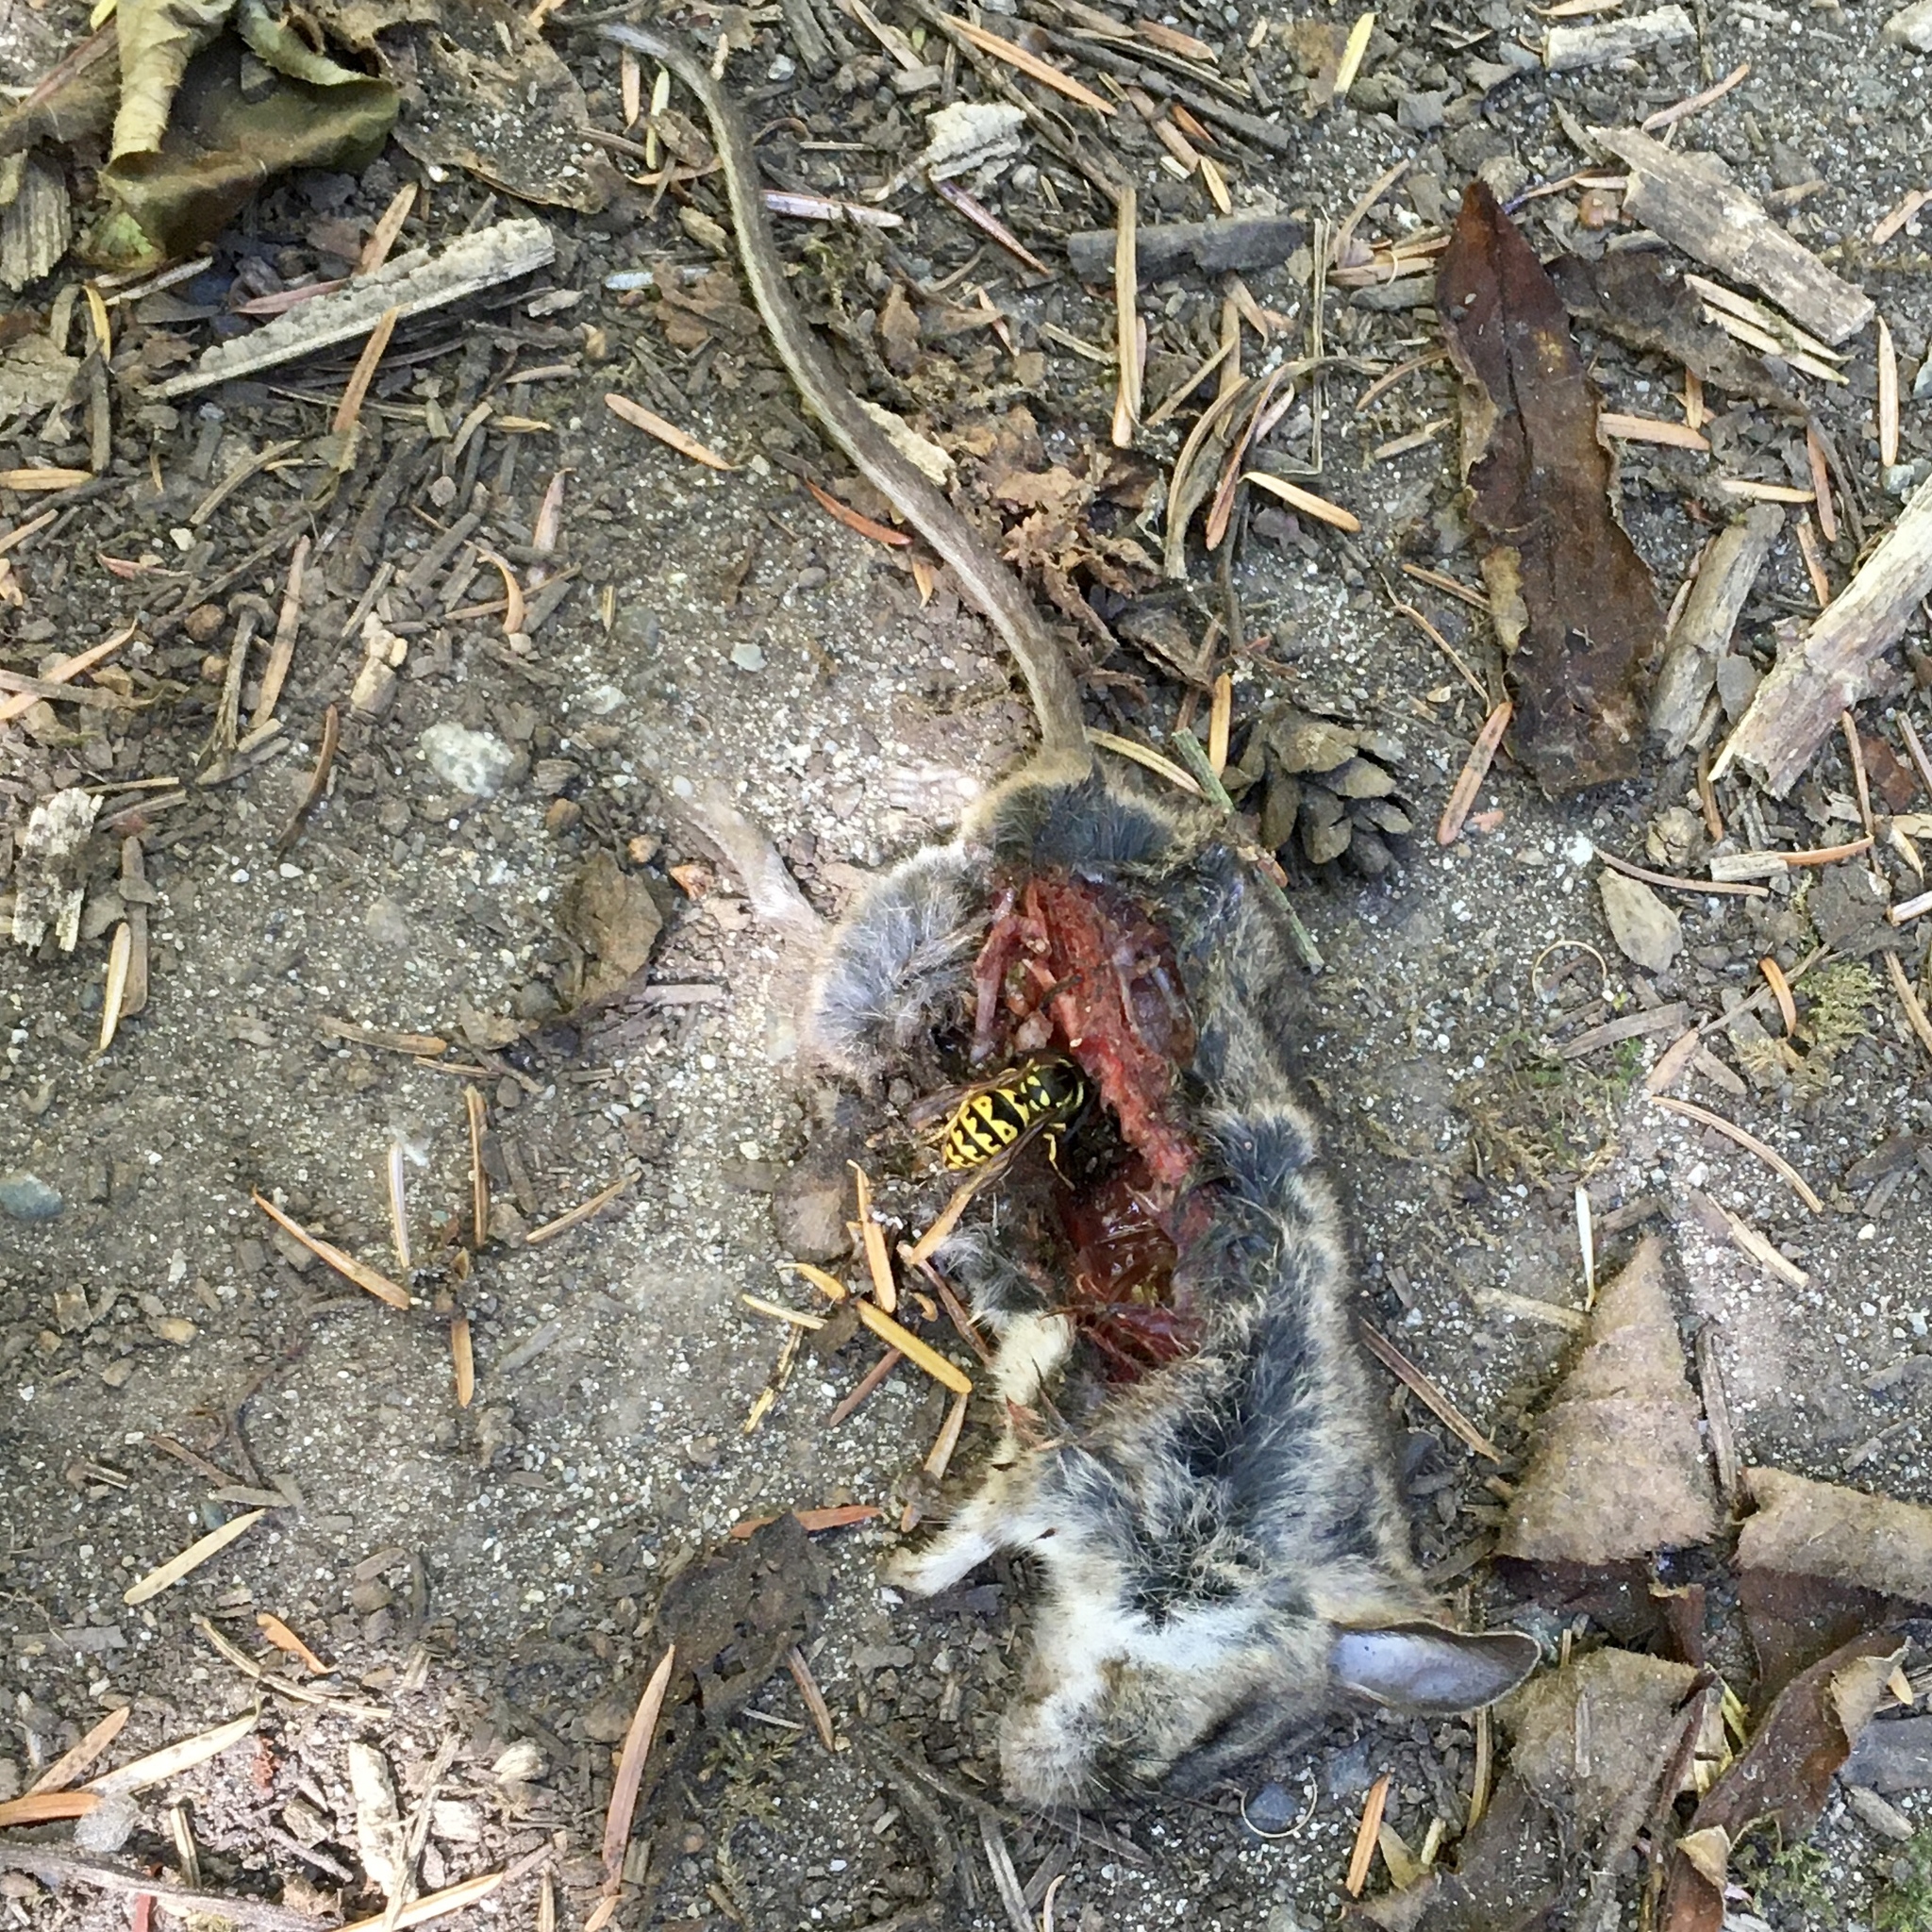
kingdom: Animalia
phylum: Arthropoda
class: Insecta
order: Hymenoptera
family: Vespidae
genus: Vespula
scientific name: Vespula pensylvanica
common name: Western yellowjacket
